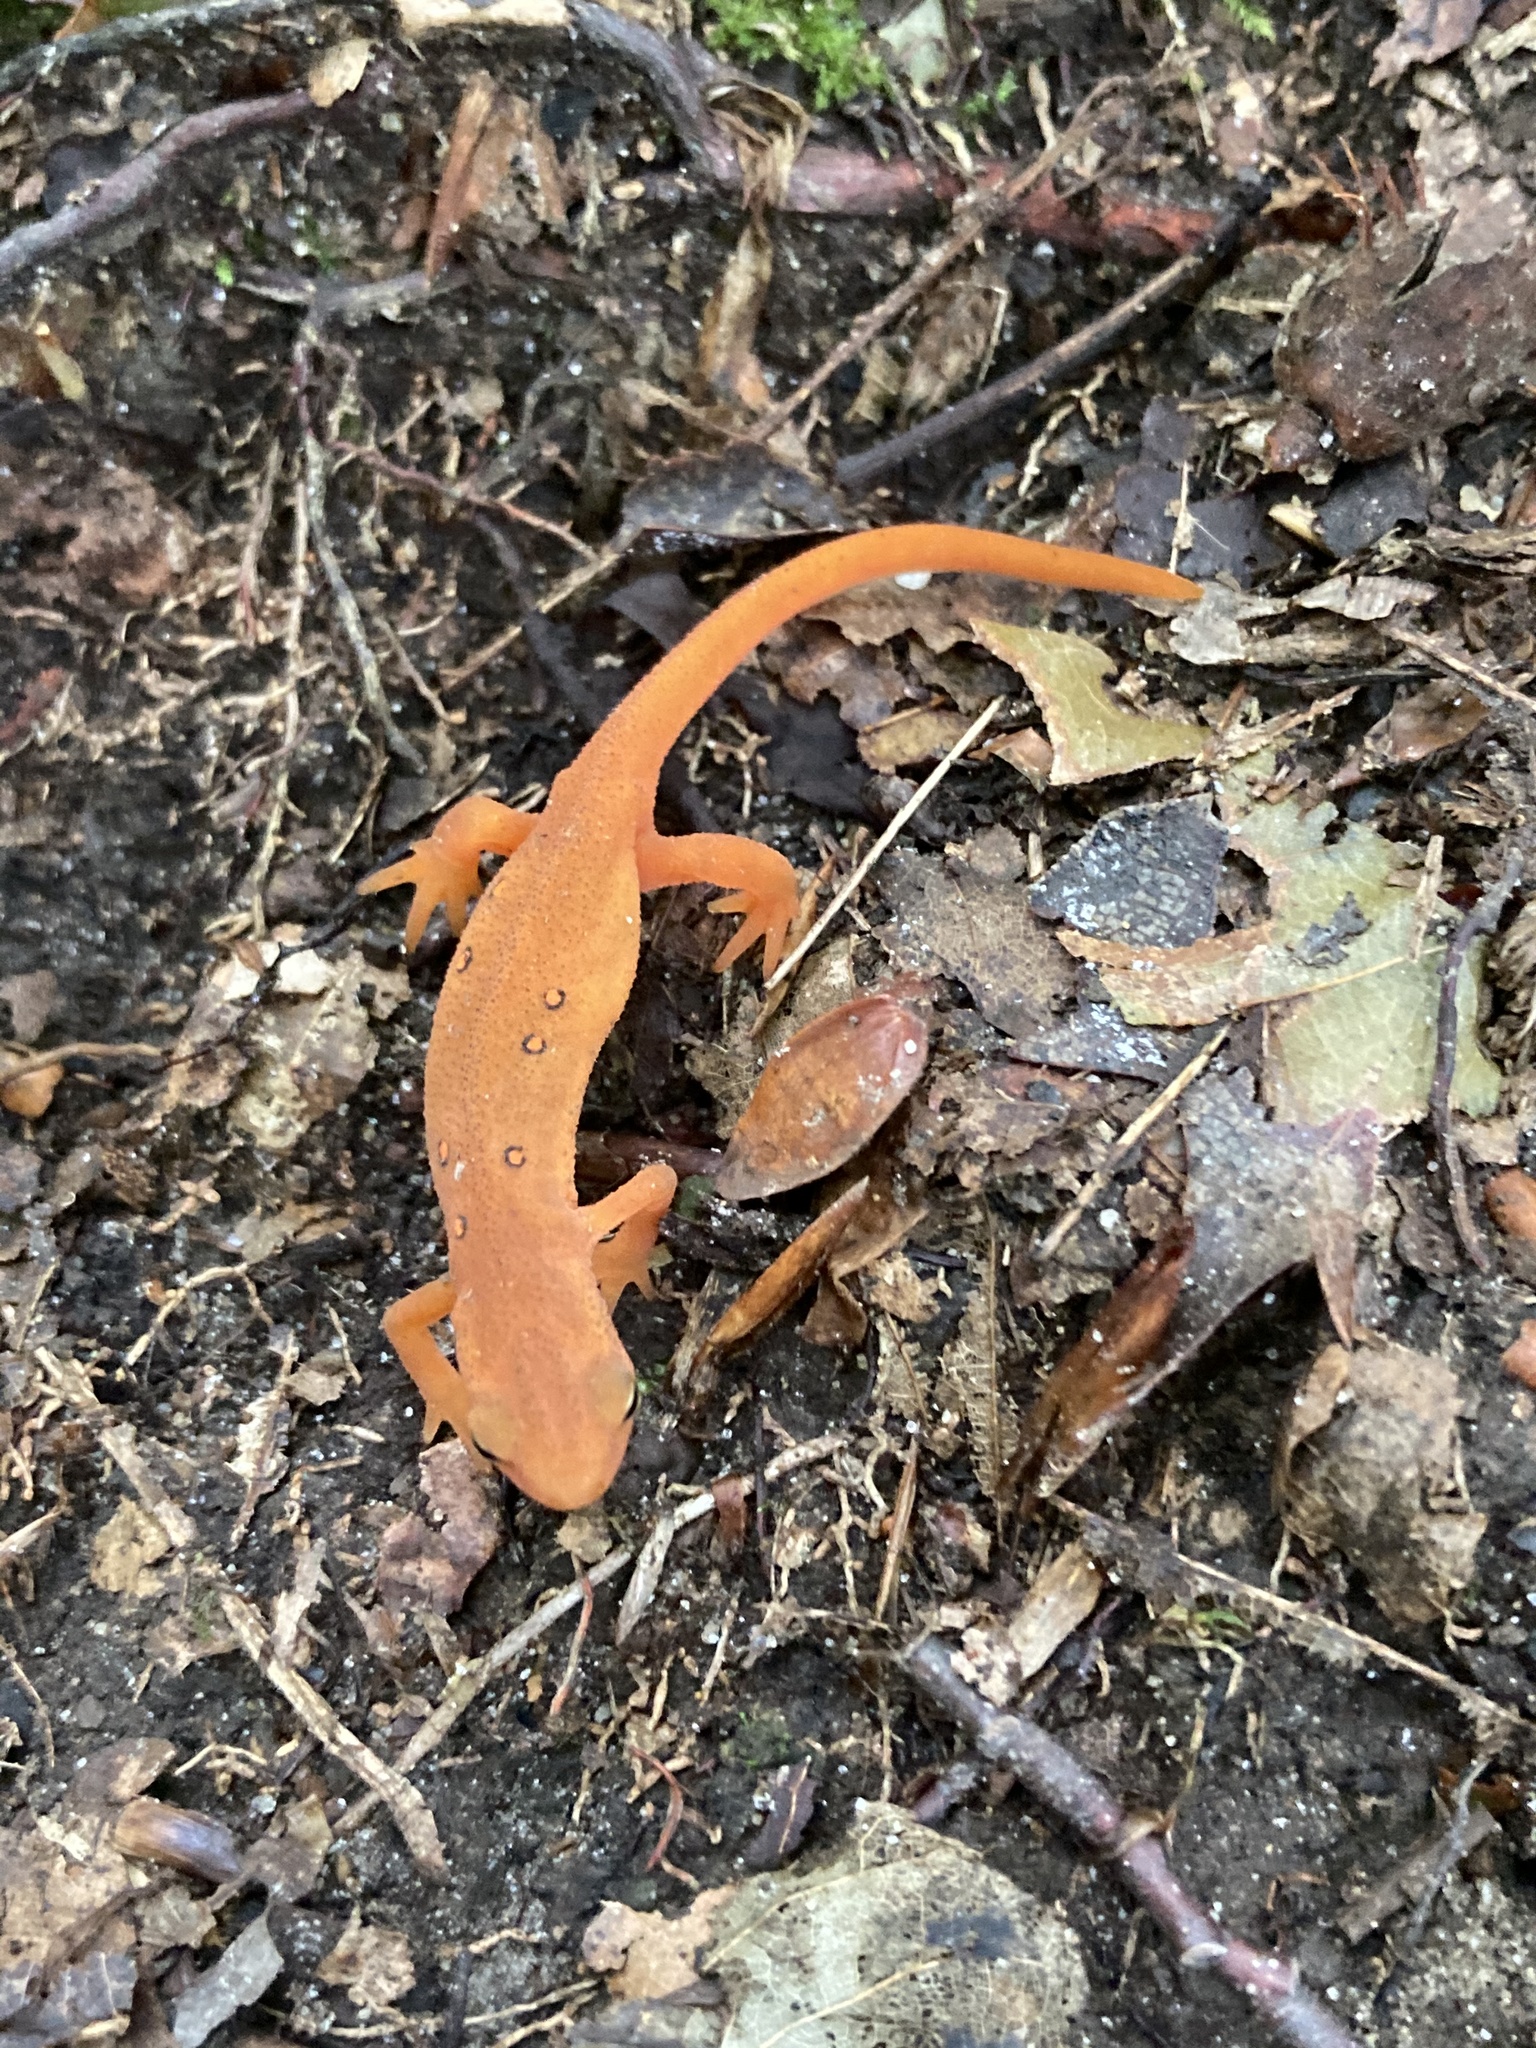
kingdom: Animalia
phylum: Chordata
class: Amphibia
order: Caudata
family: Salamandridae
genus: Notophthalmus
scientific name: Notophthalmus viridescens
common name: Eastern newt
